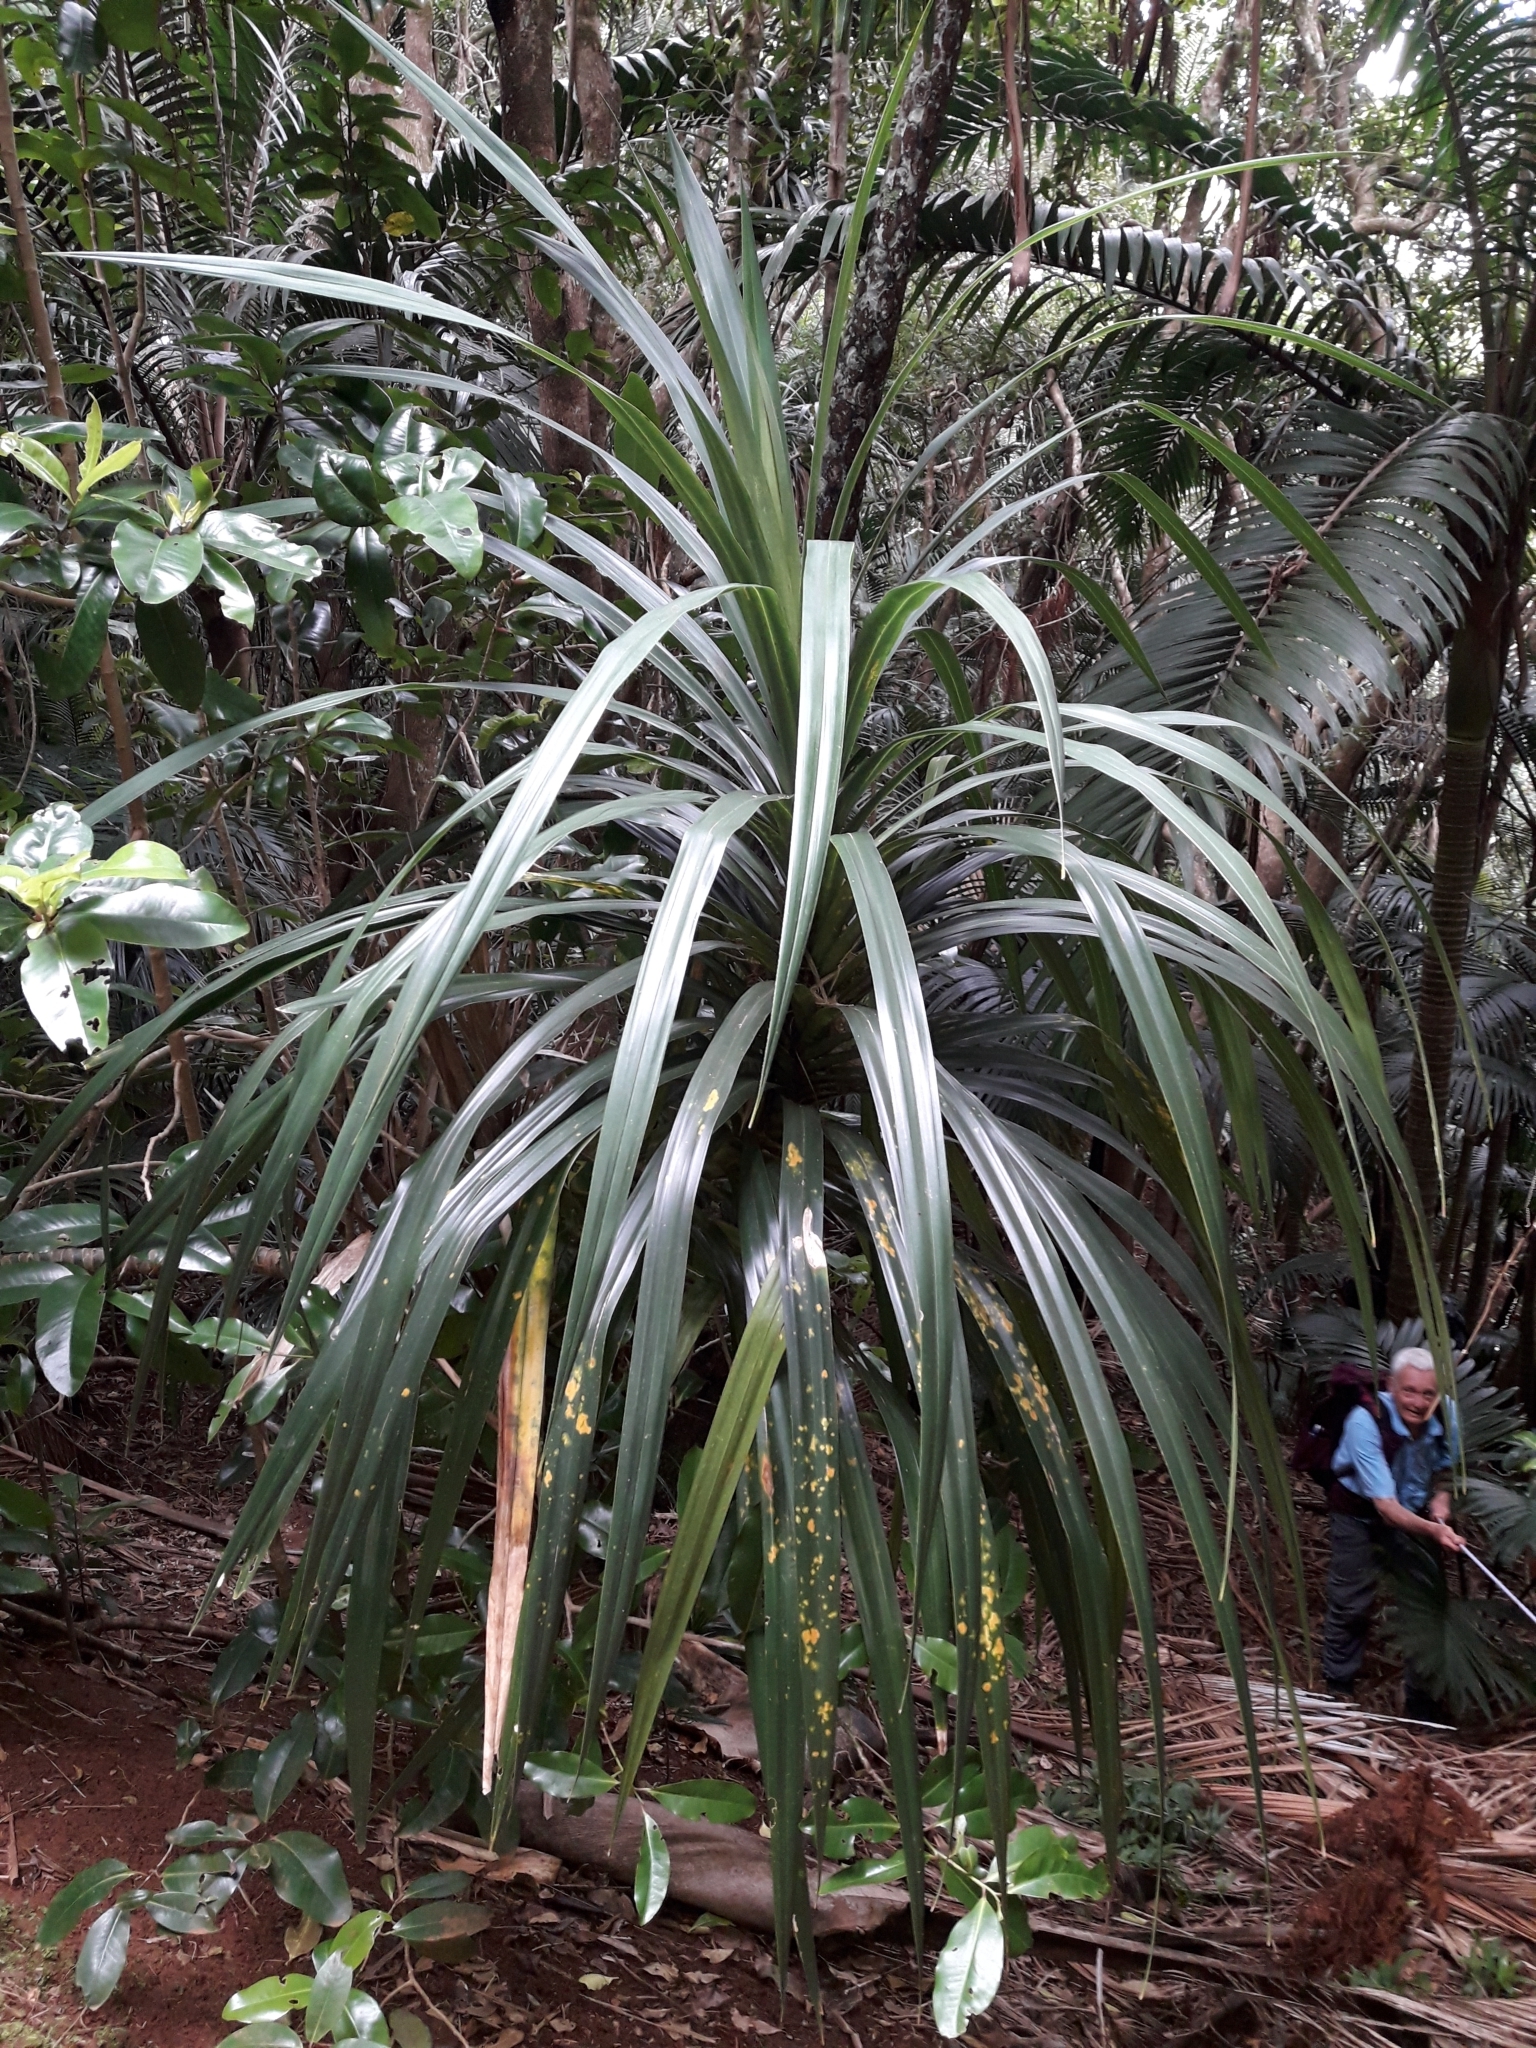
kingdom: Plantae
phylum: Tracheophyta
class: Liliopsida
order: Pandanales
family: Pandanaceae
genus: Freycinetia
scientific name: Freycinetia baueriana
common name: Mountain rush
